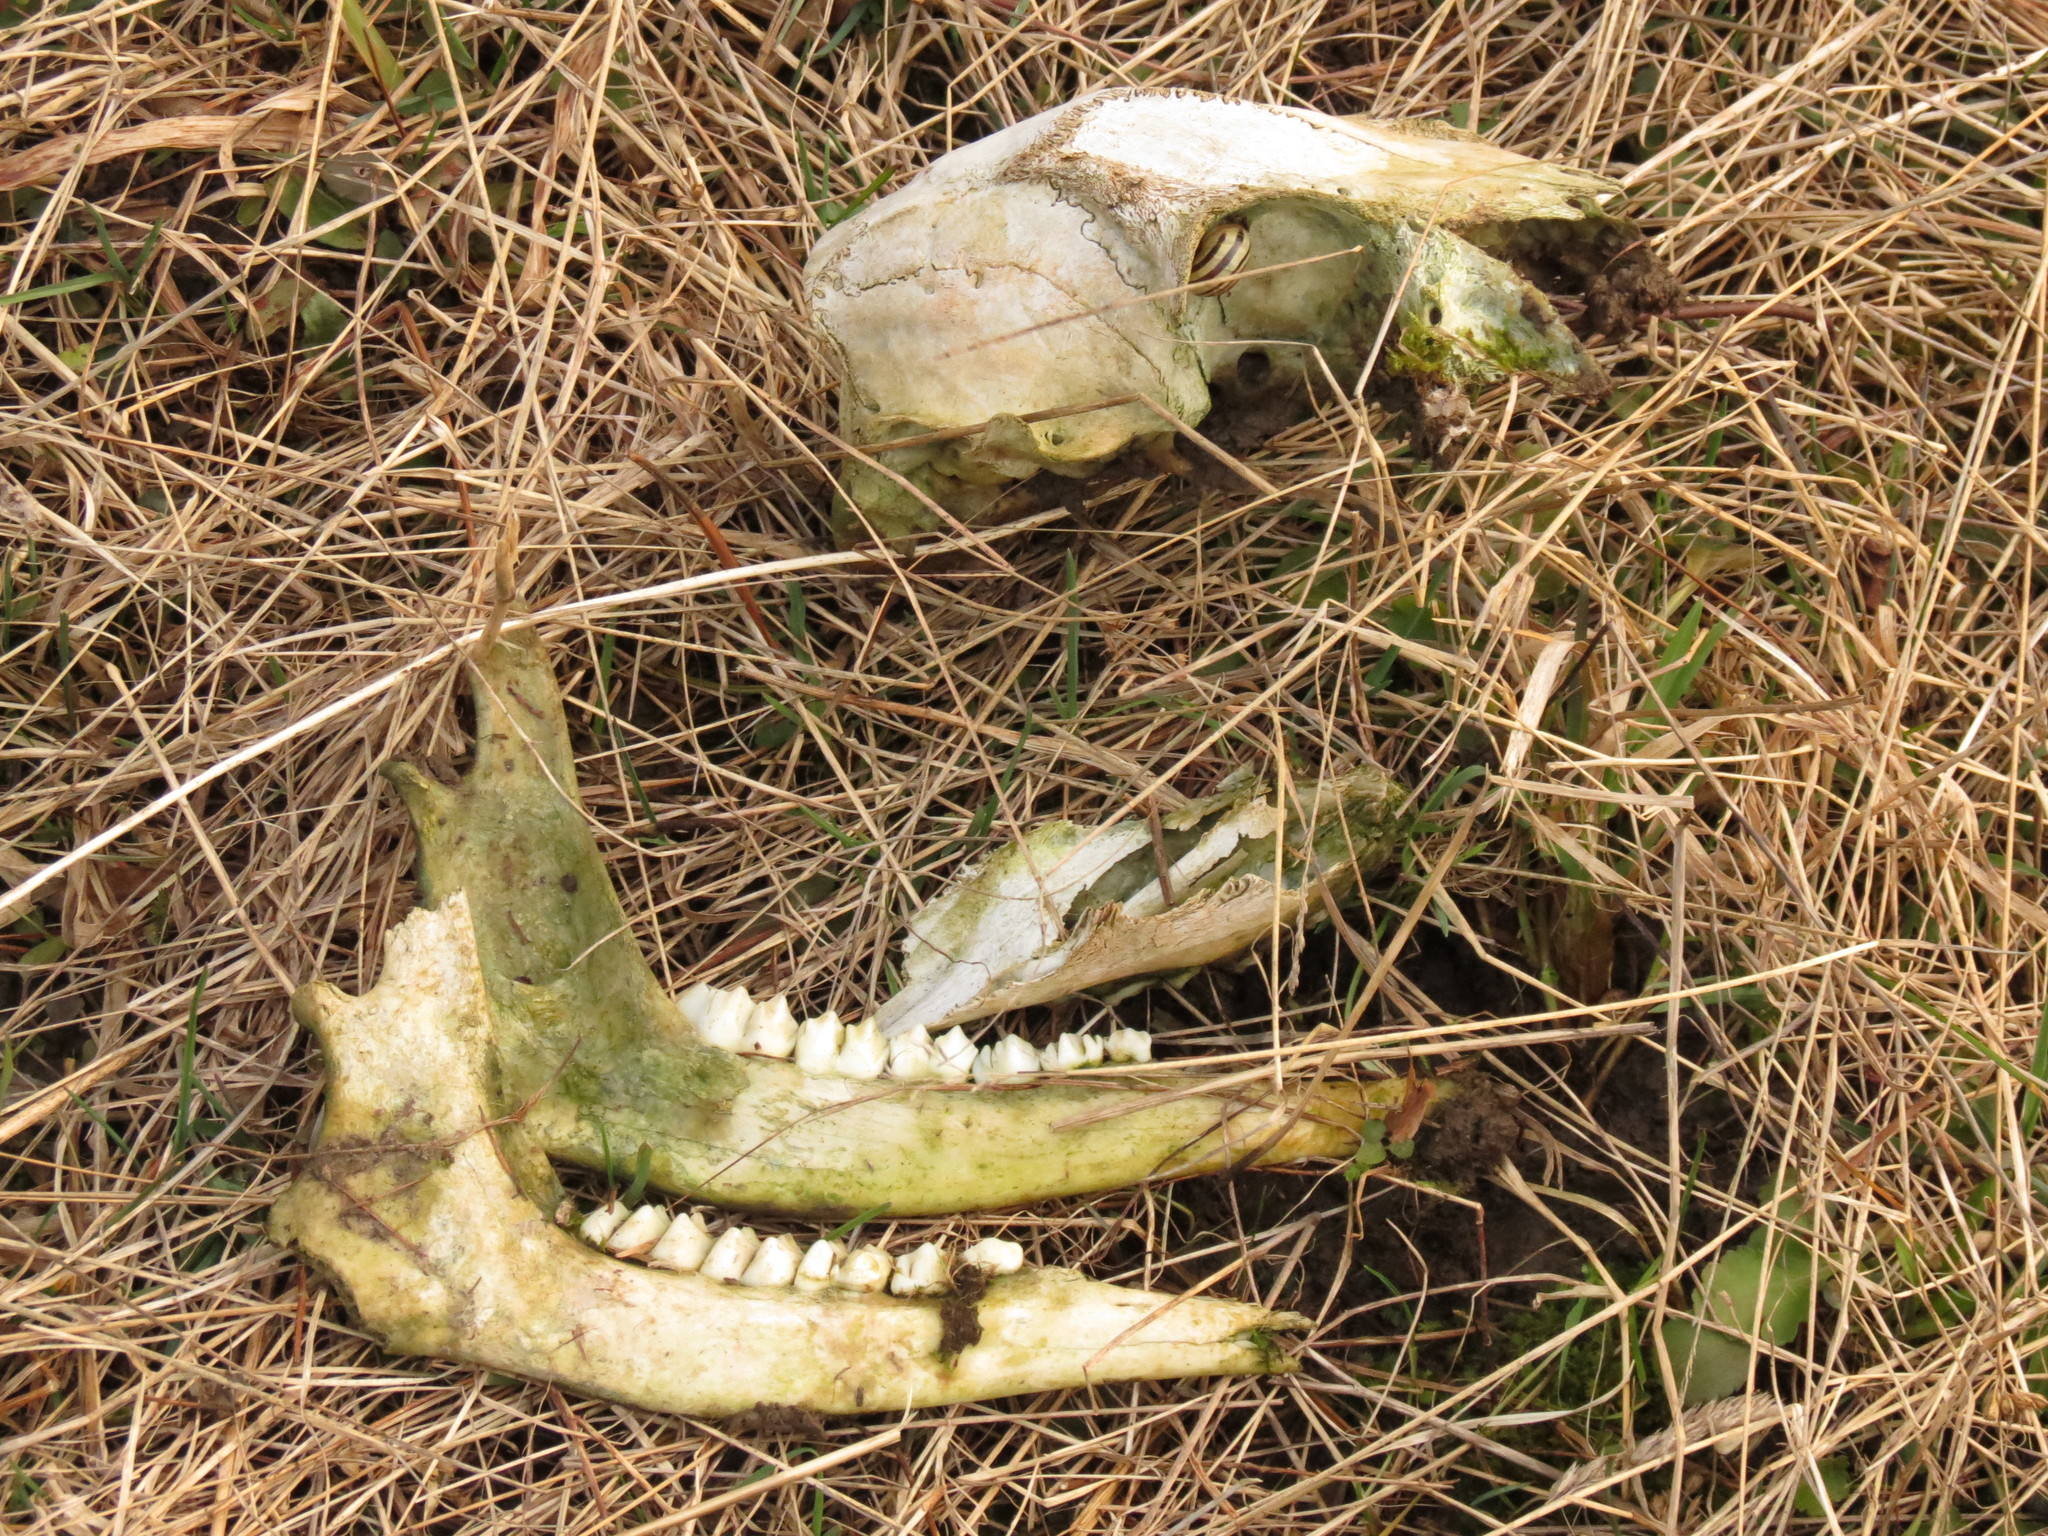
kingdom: Animalia
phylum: Chordata
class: Mammalia
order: Artiodactyla
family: Cervidae
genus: Odocoileus
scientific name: Odocoileus virginianus
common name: White-tailed deer
